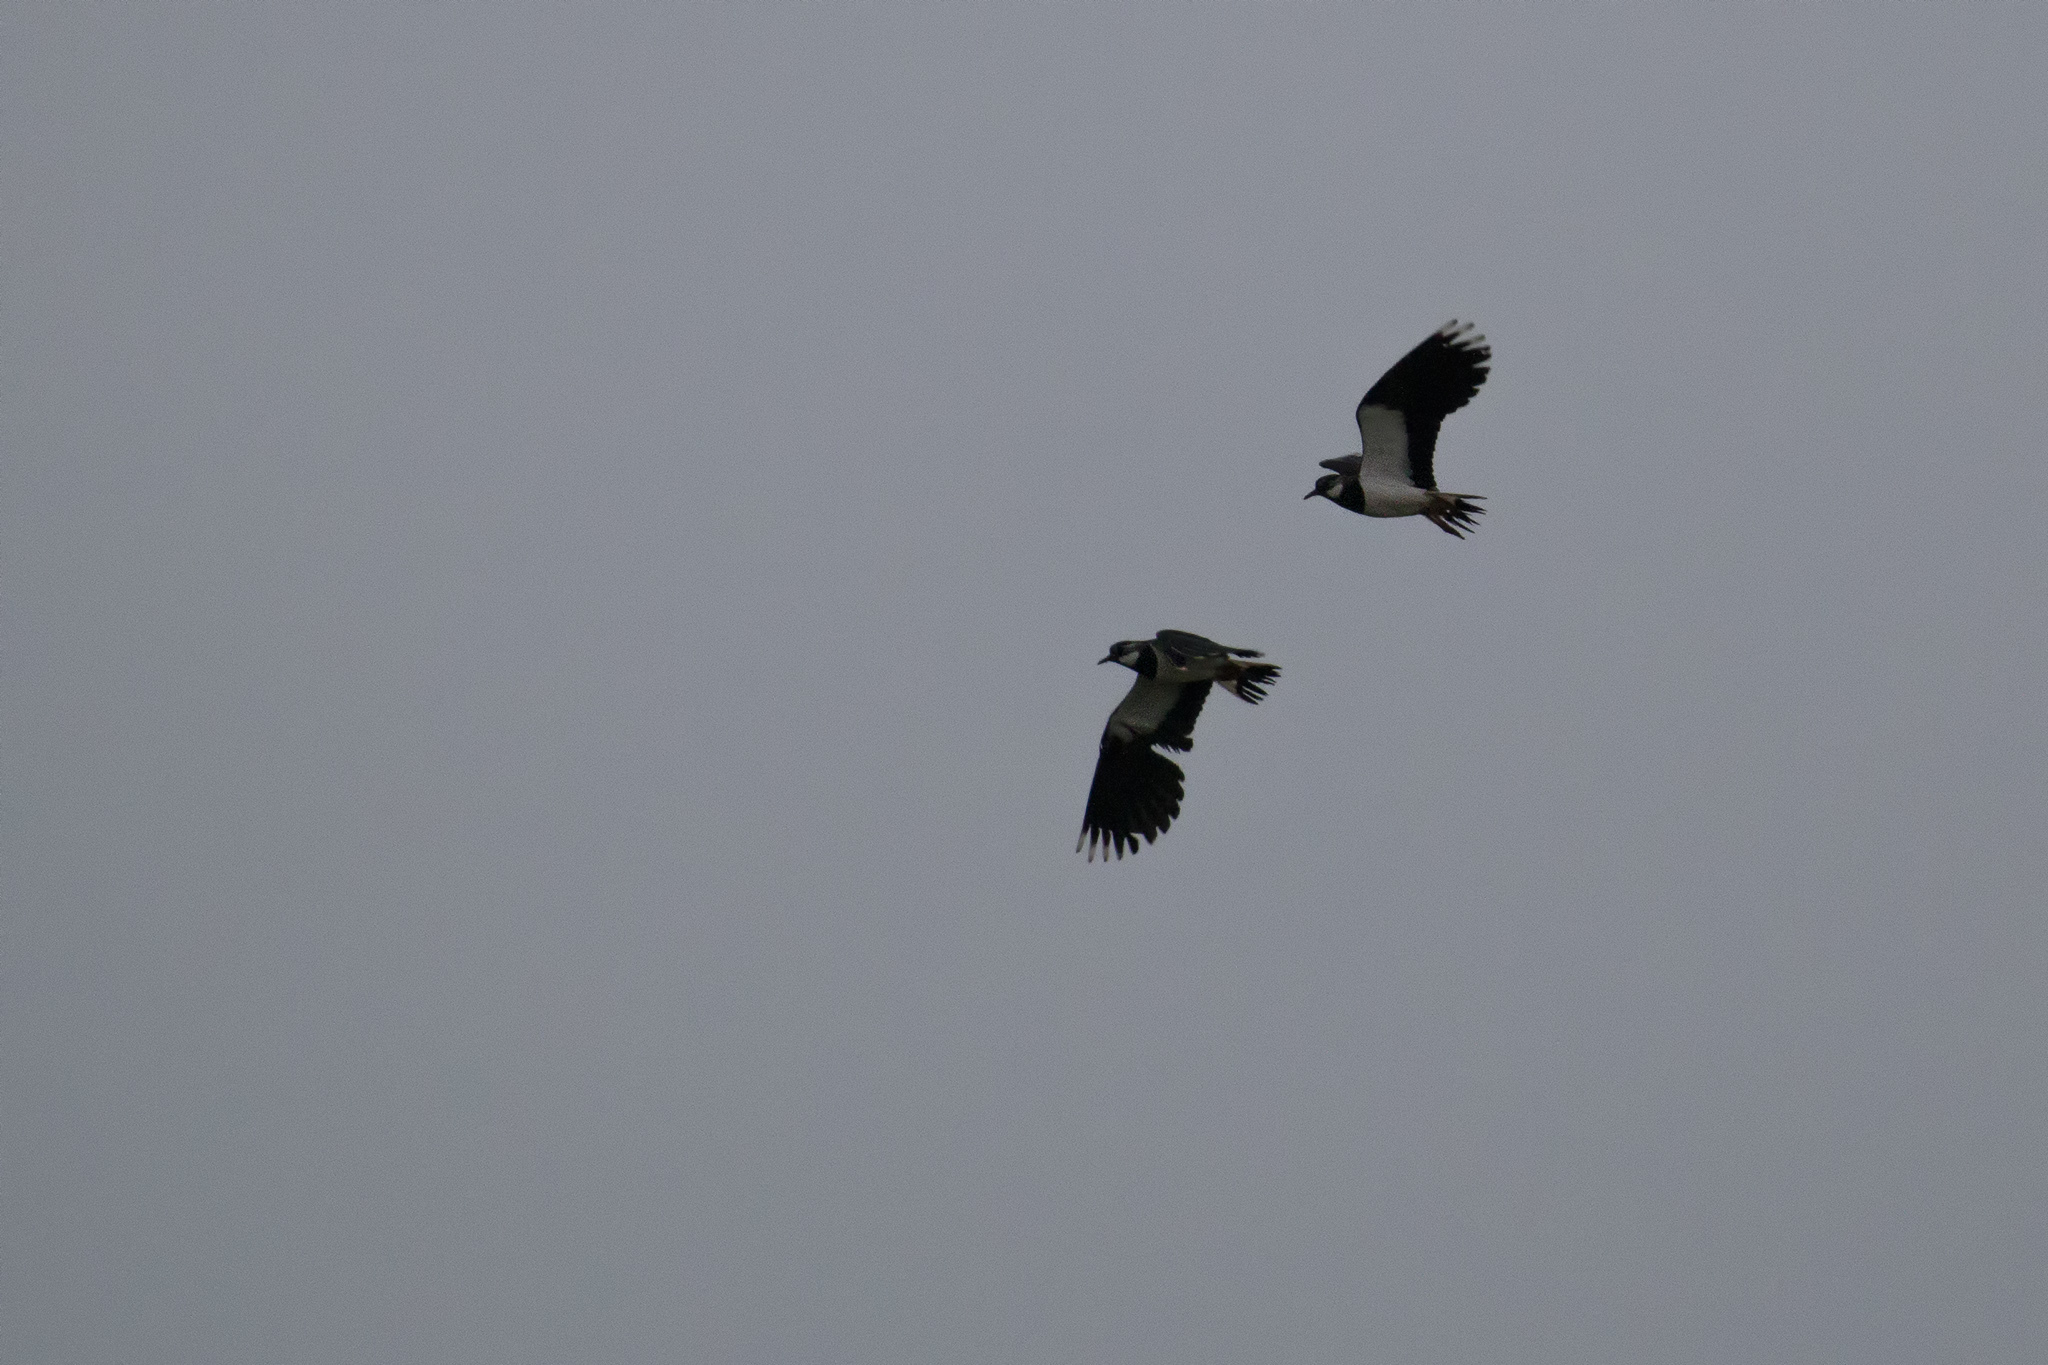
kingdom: Animalia
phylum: Chordata
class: Aves
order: Charadriiformes
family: Charadriidae
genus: Vanellus
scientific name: Vanellus vanellus
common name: Northern lapwing
